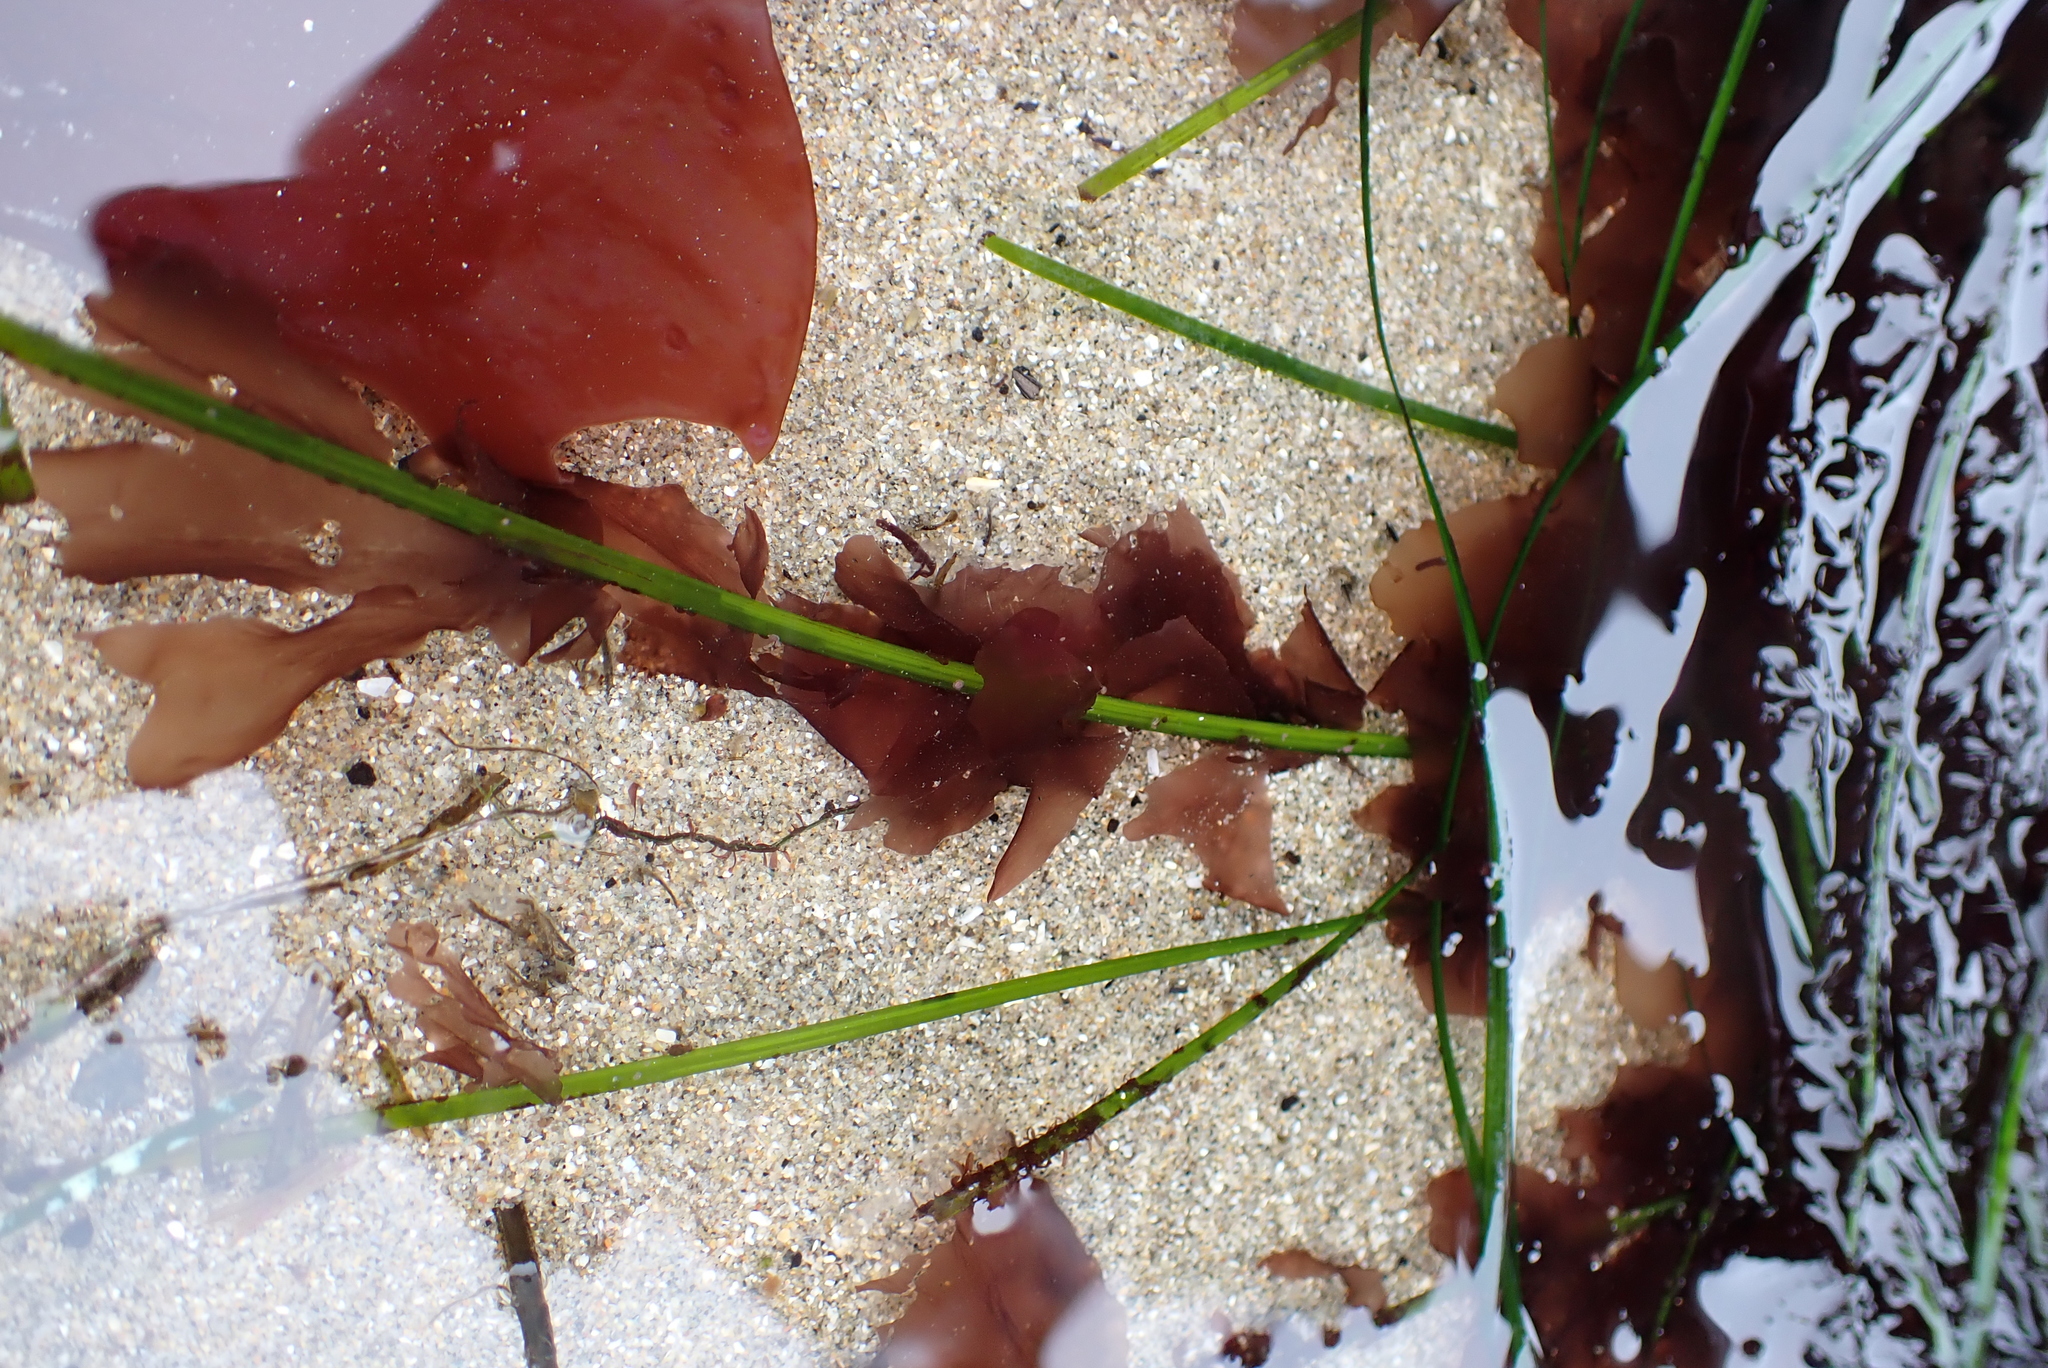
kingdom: Plantae
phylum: Rhodophyta
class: Compsopogonophyceae
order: Erythropeltidales
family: Erythrotrichiaceae
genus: Smithora
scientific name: Smithora naiadum
